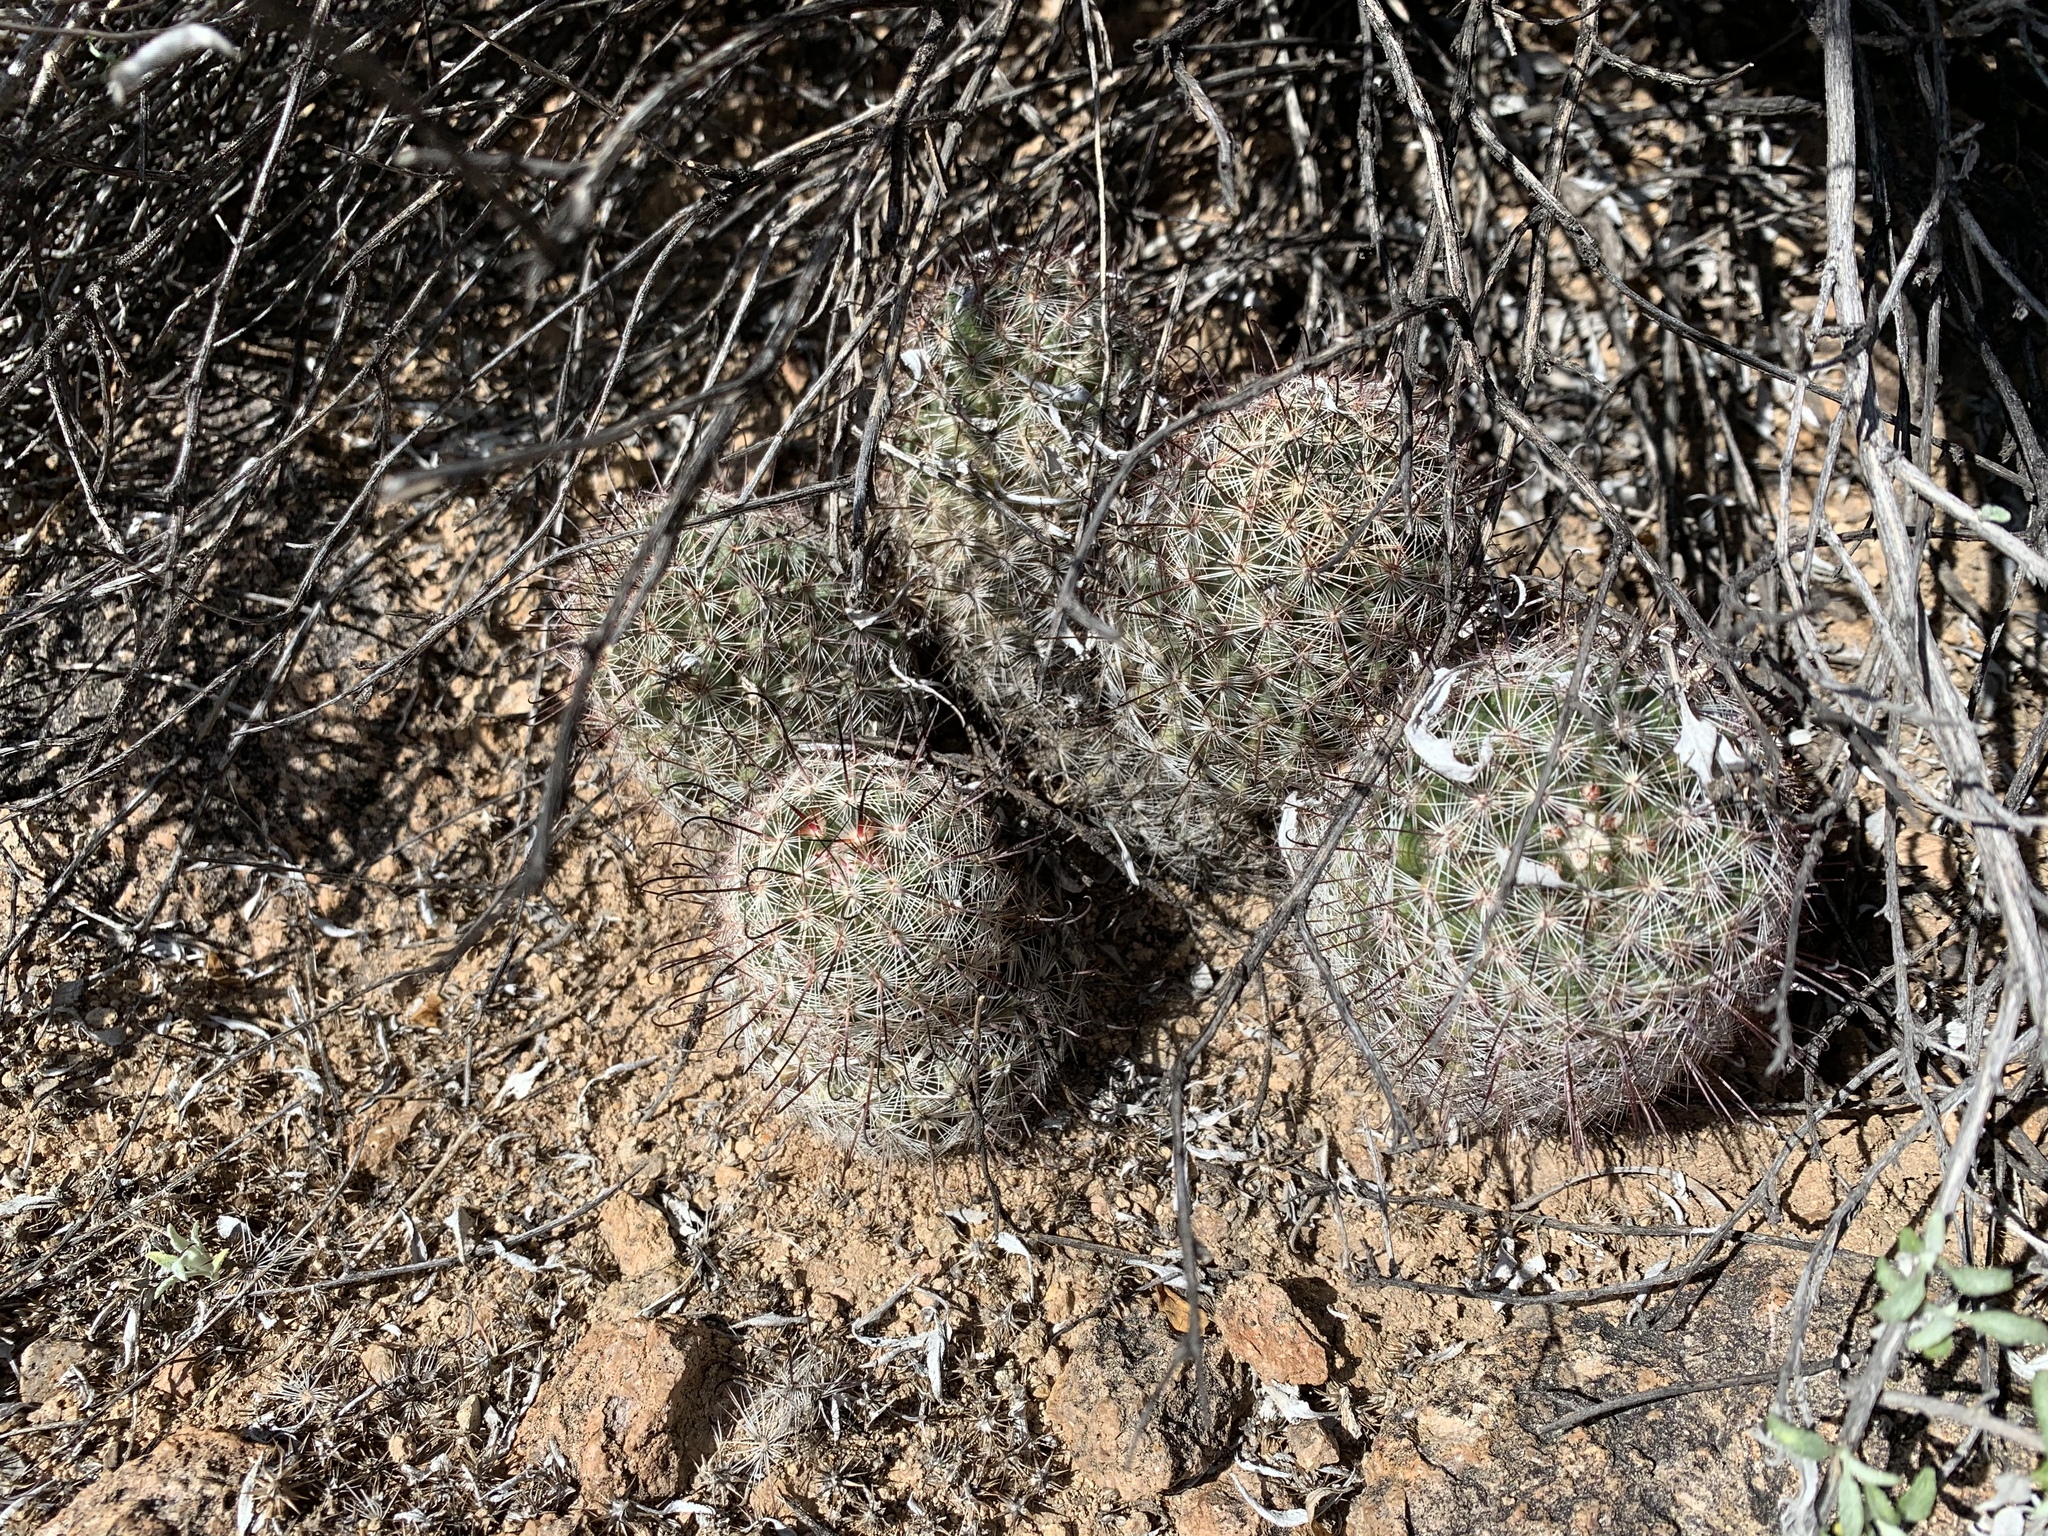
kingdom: Plantae
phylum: Tracheophyta
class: Magnoliopsida
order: Caryophyllales
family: Cactaceae
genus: Cochemiea
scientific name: Cochemiea grahamii
